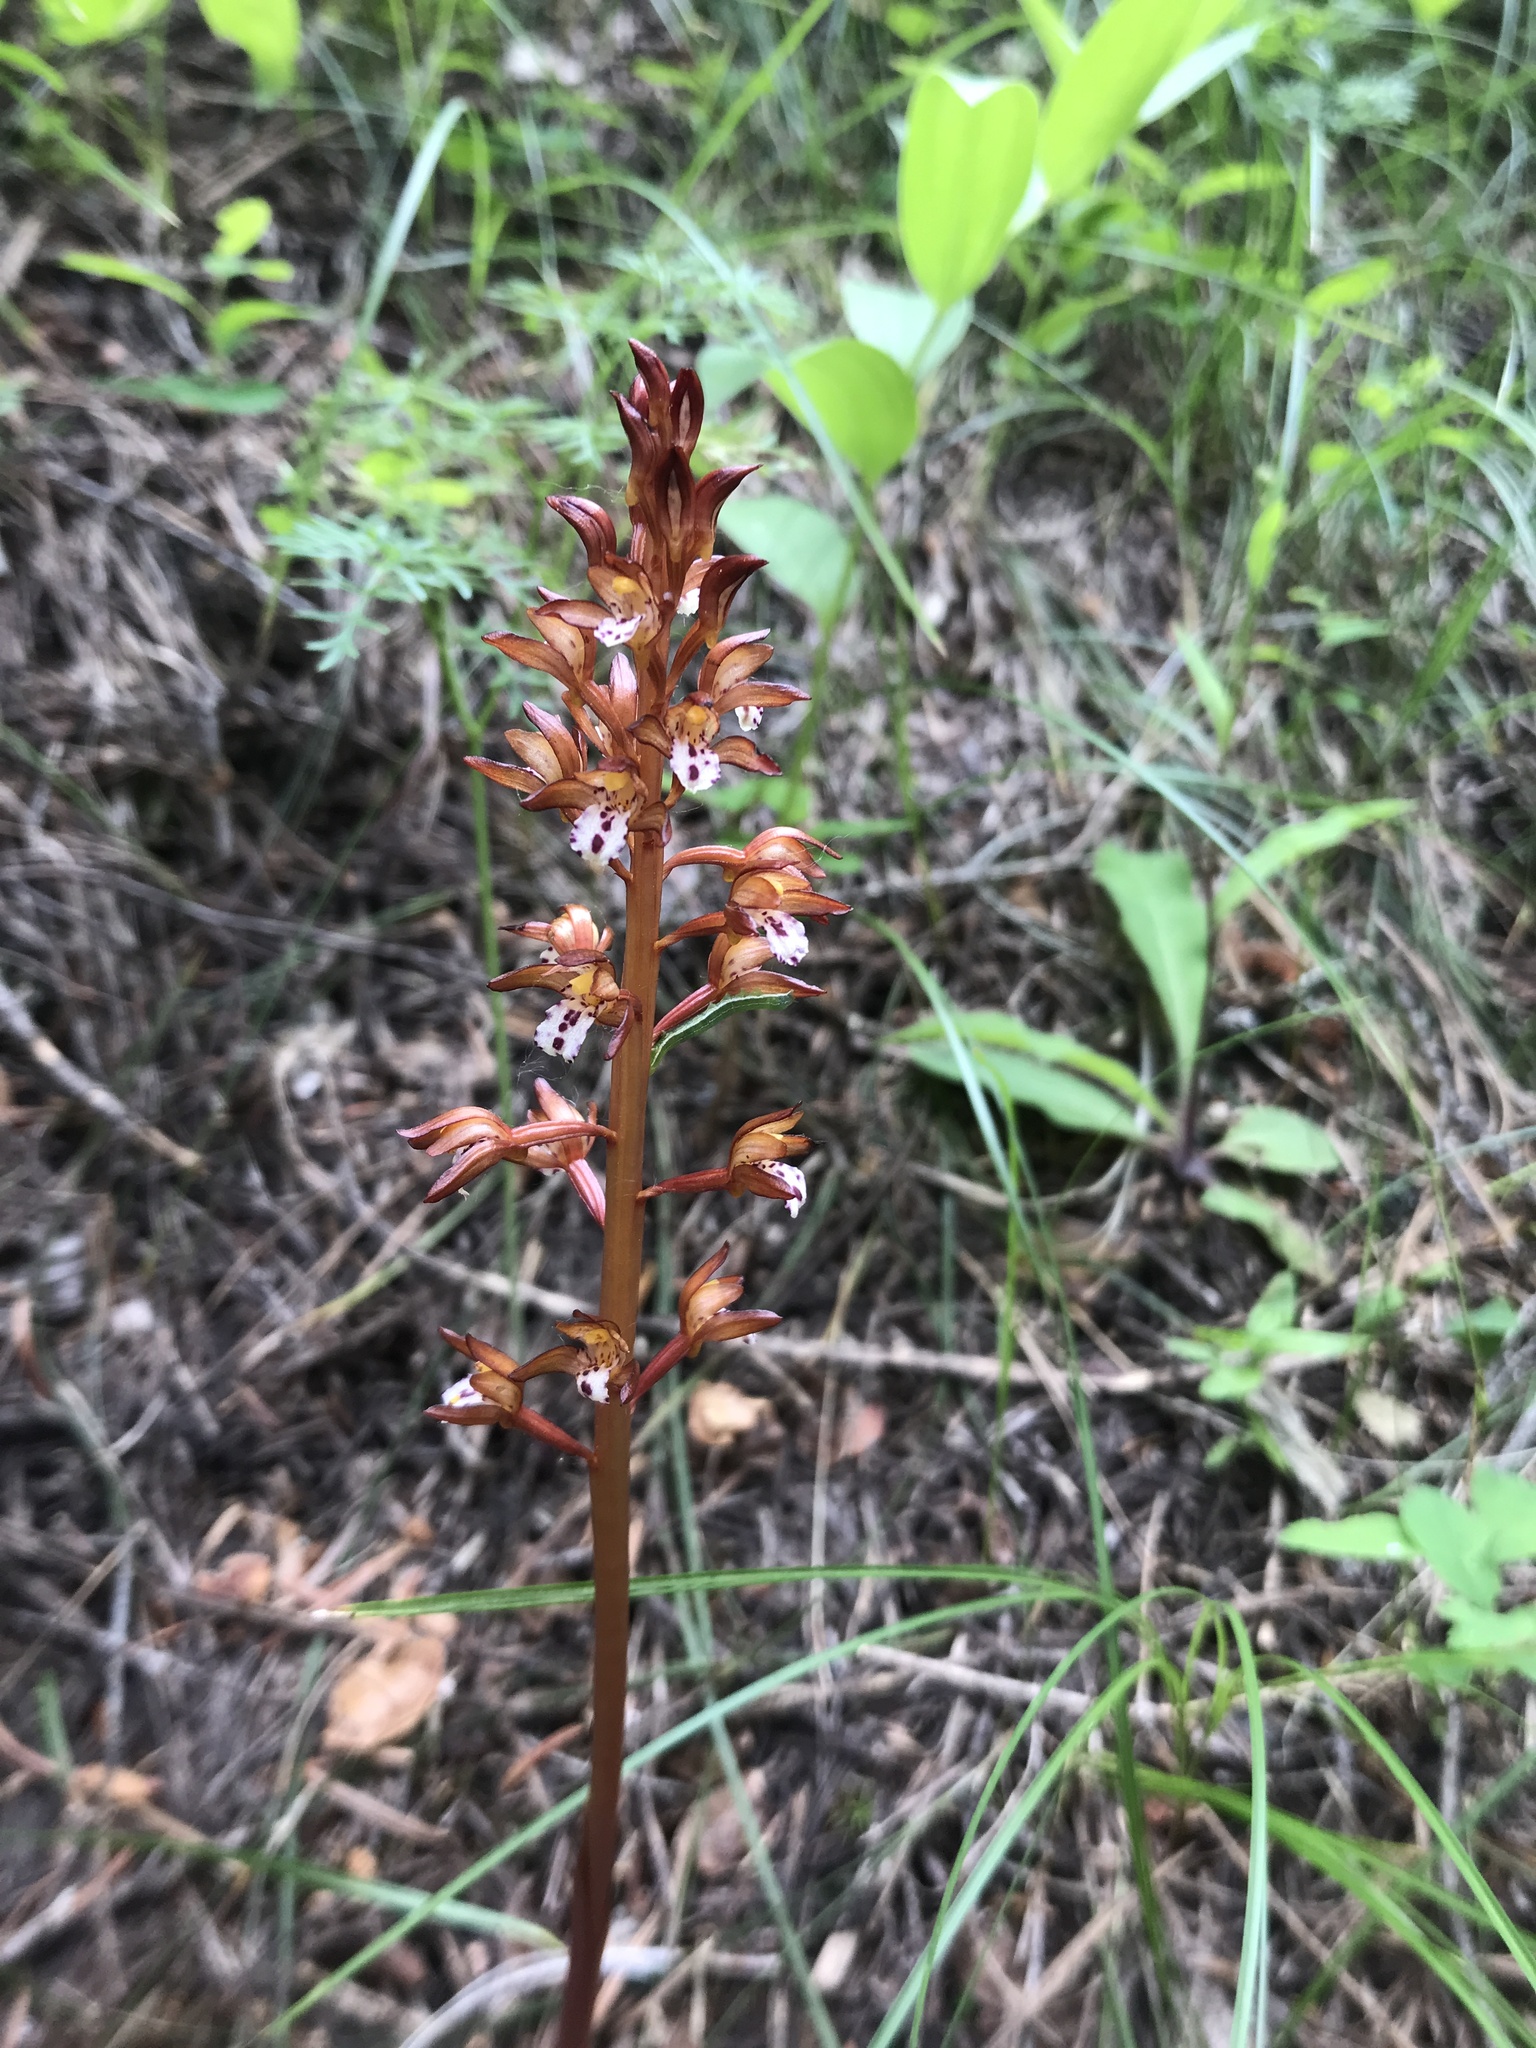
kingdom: Plantae
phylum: Tracheophyta
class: Liliopsida
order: Asparagales
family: Orchidaceae
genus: Corallorhiza
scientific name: Corallorhiza maculata
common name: Spotted coralroot
